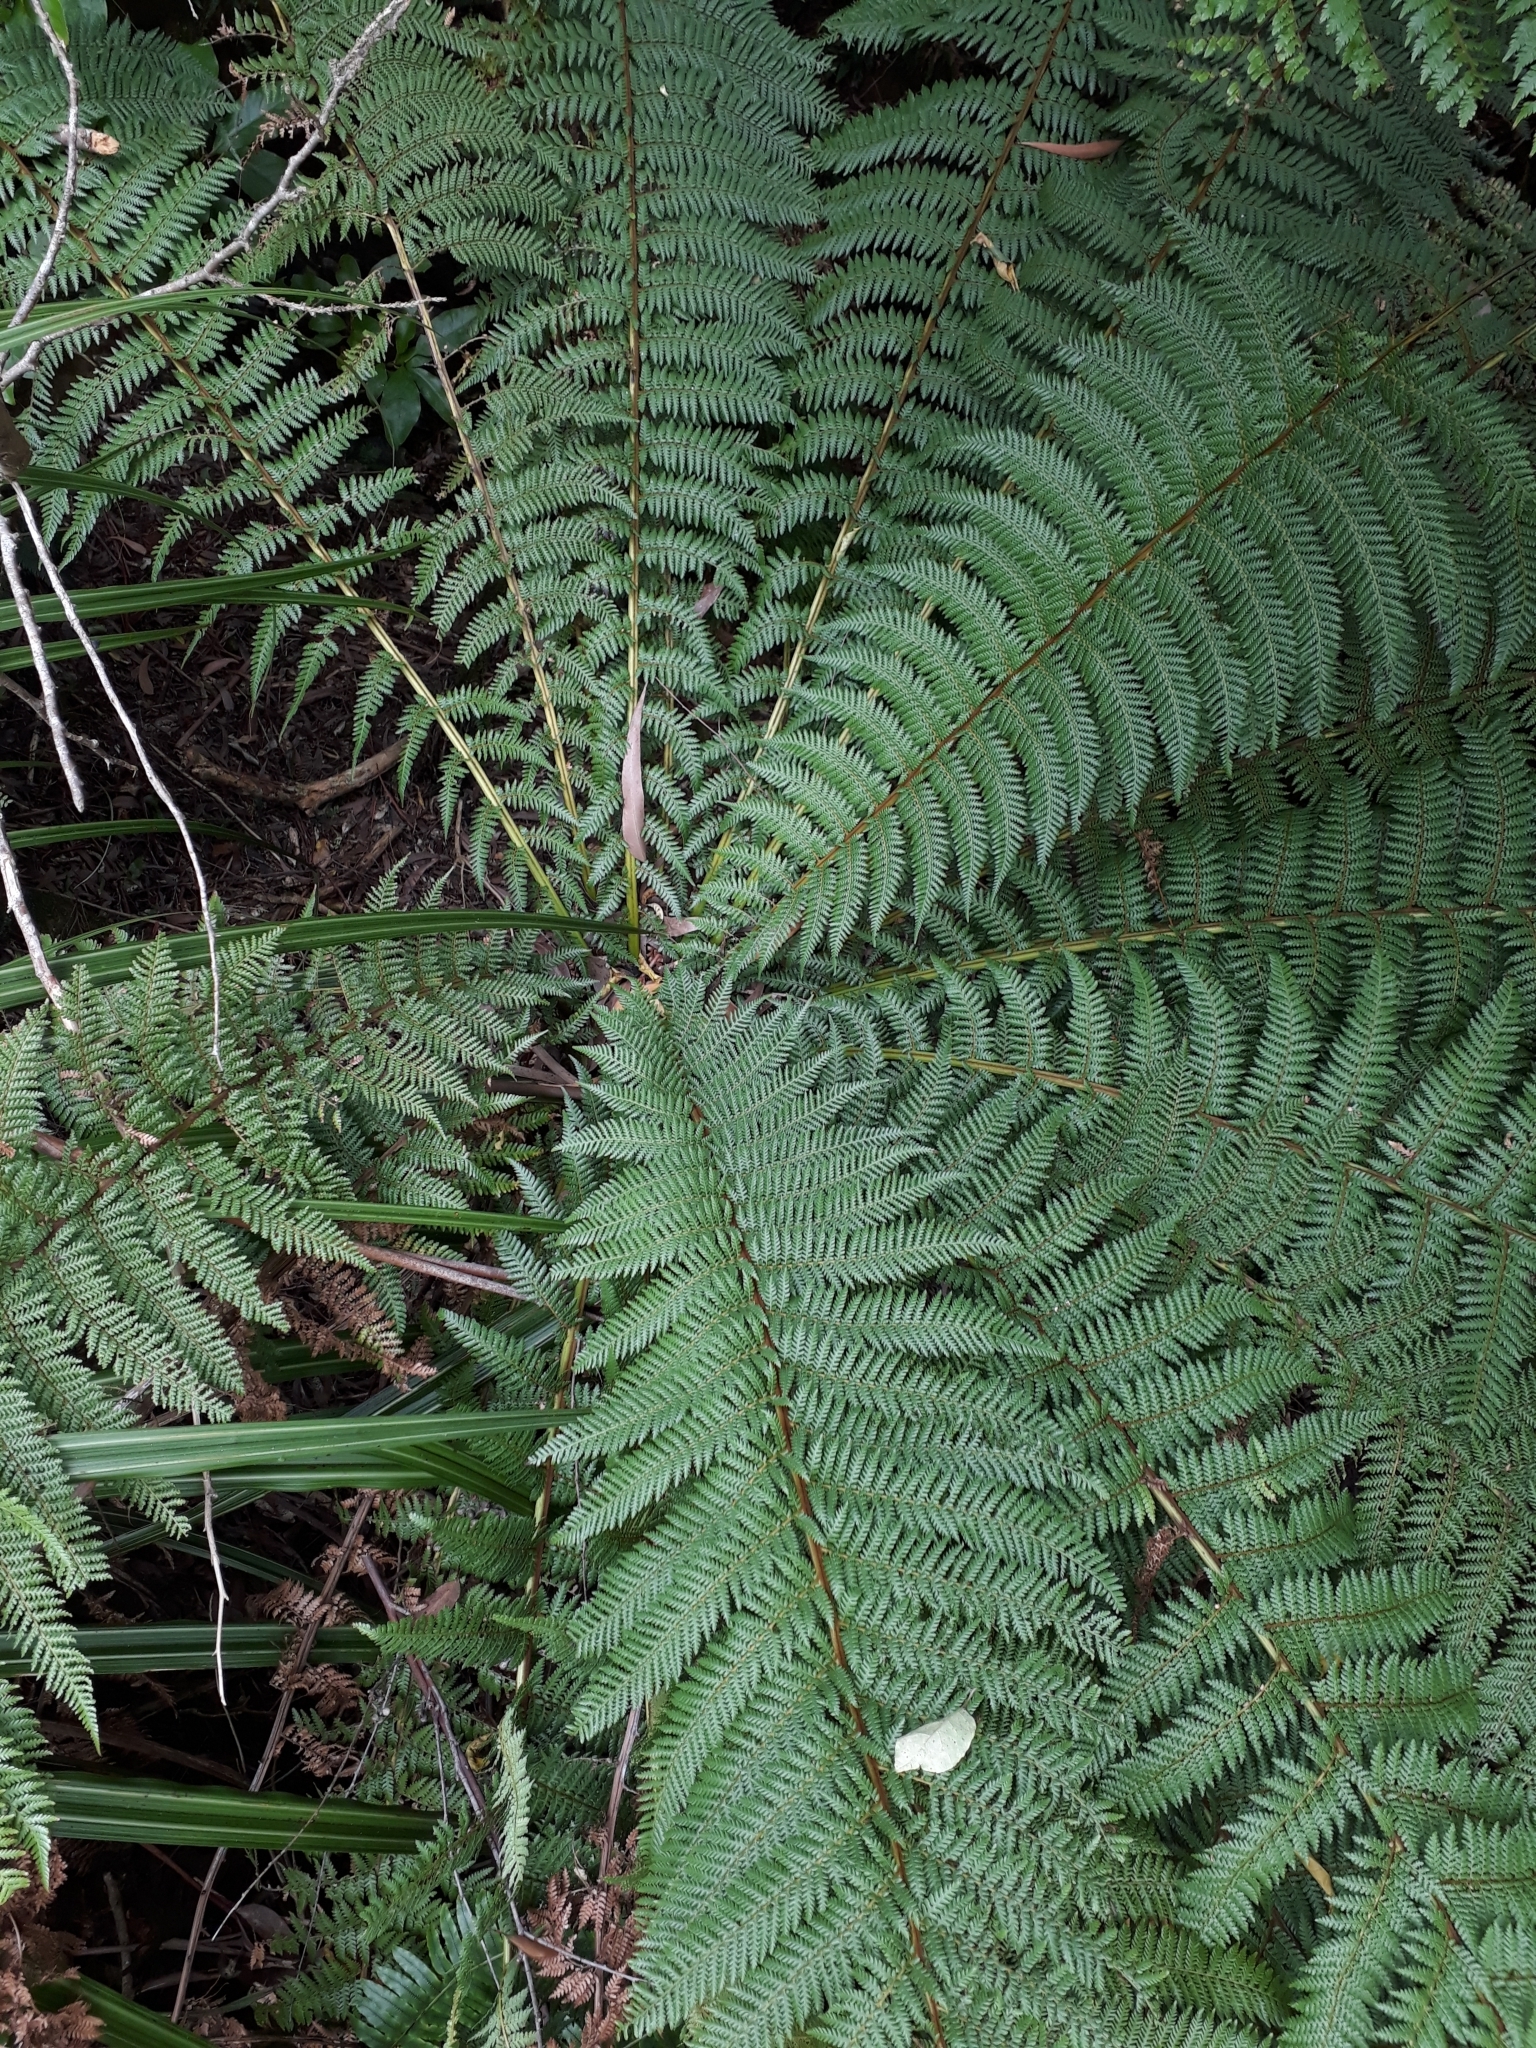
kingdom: Plantae
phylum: Tracheophyta
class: Polypodiopsida
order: Cyatheales
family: Dicksoniaceae
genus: Dicksonia
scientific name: Dicksonia fibrosa
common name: Golden tree fern
